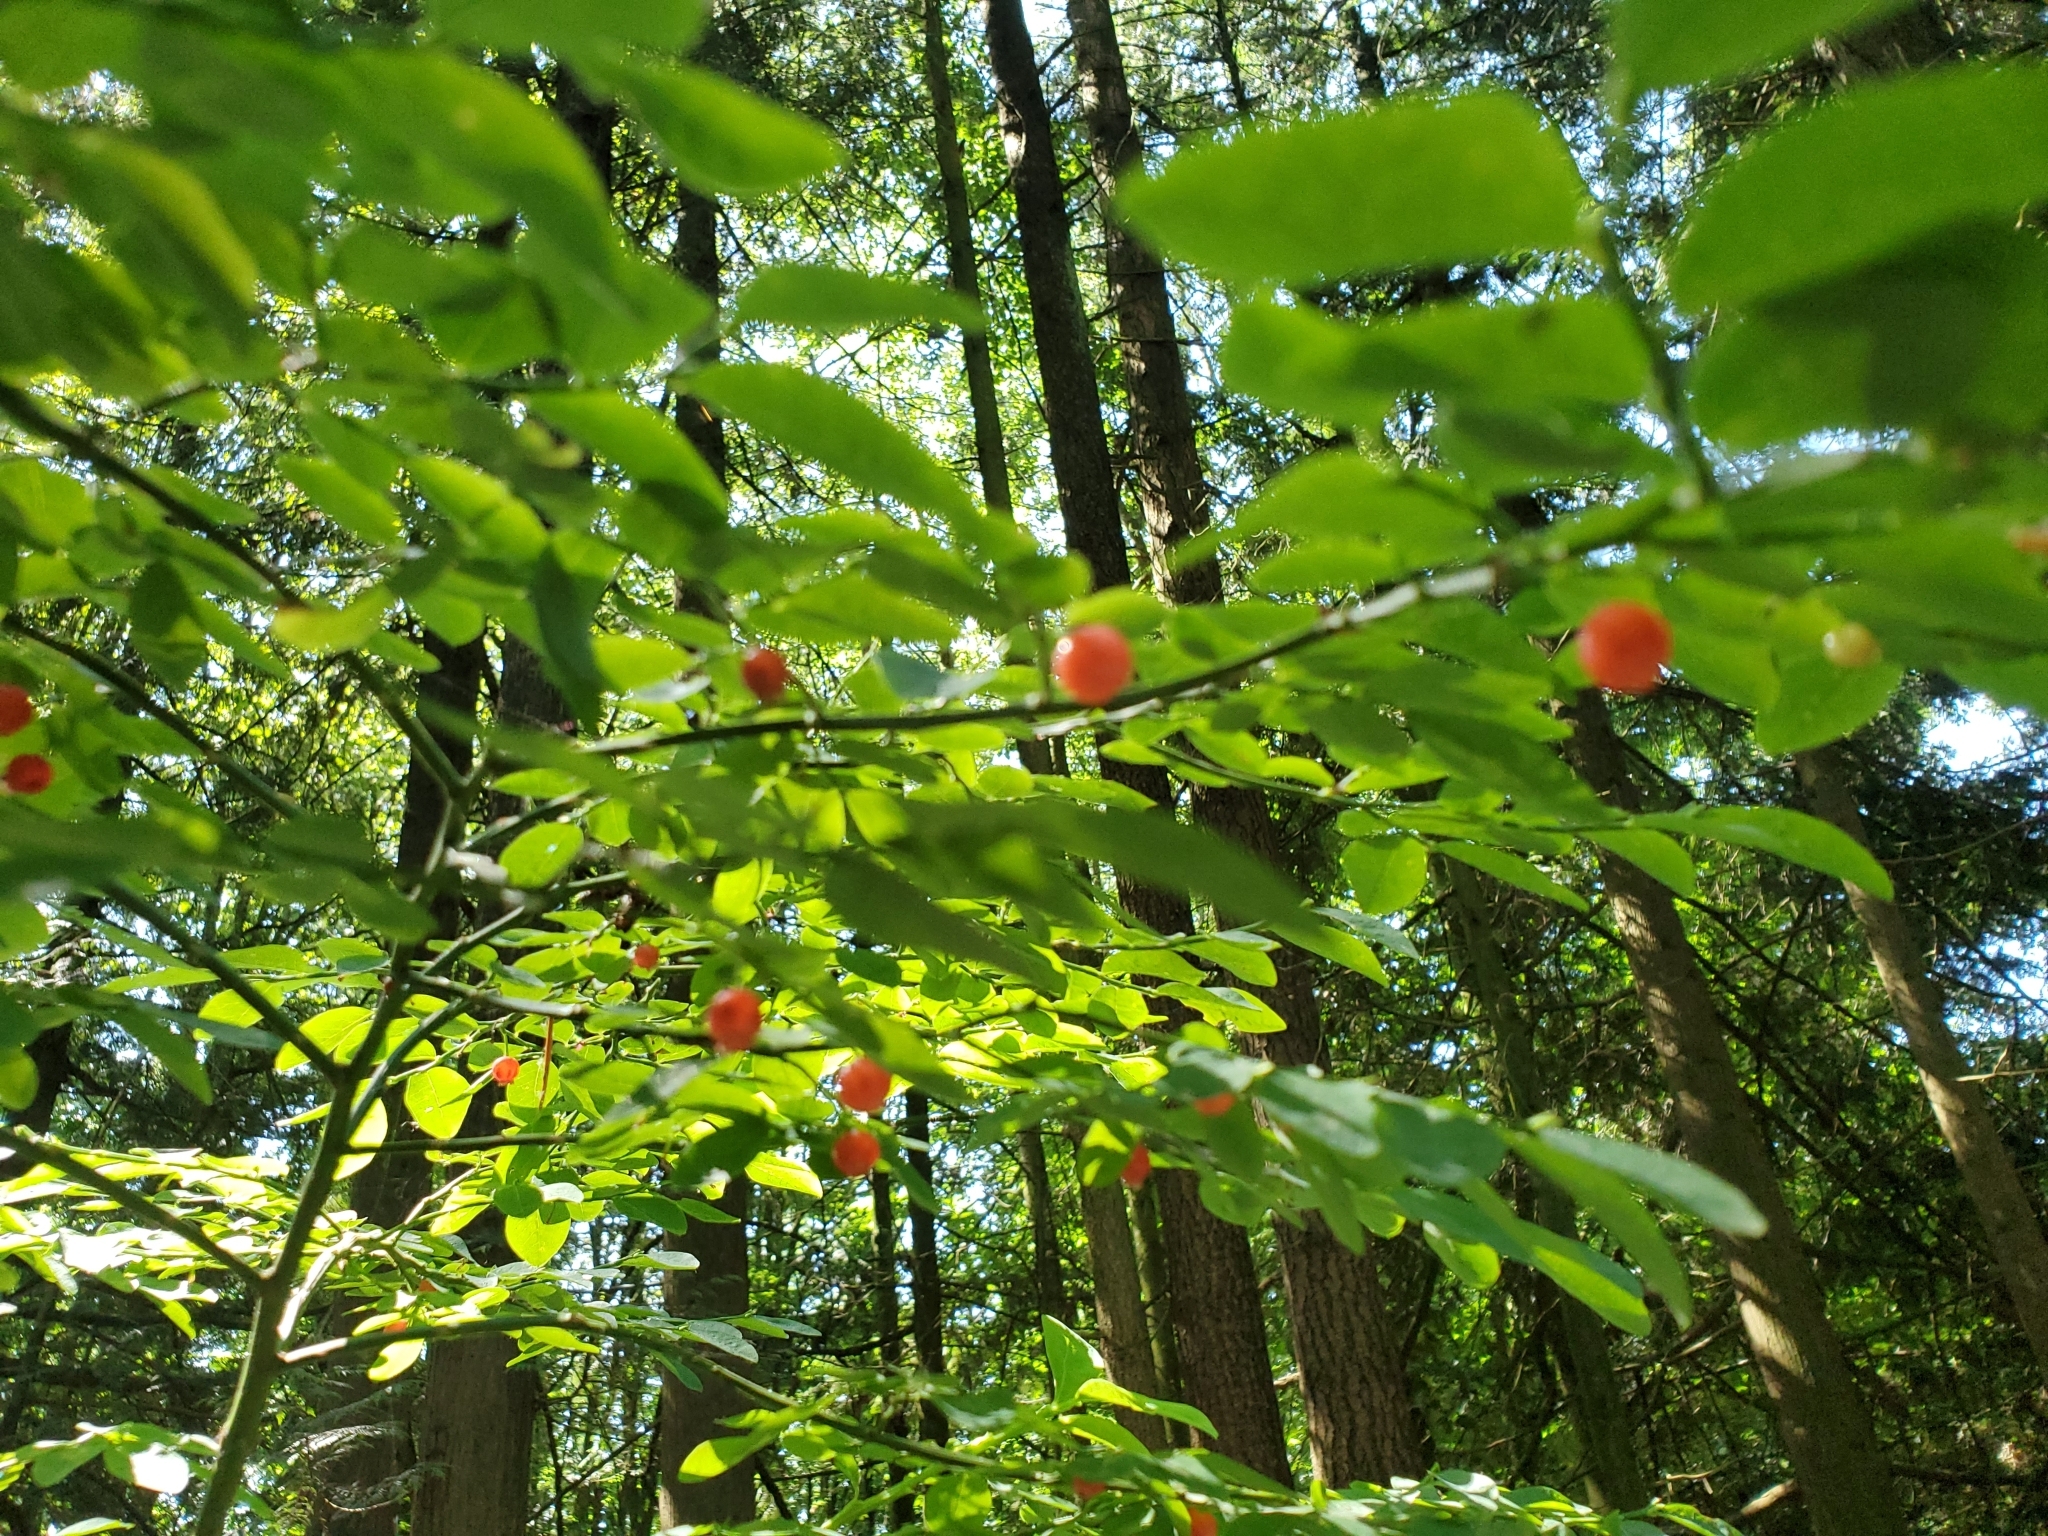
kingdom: Plantae
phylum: Tracheophyta
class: Magnoliopsida
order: Ericales
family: Ericaceae
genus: Vaccinium
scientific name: Vaccinium parvifolium
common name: Red-huckleberry
